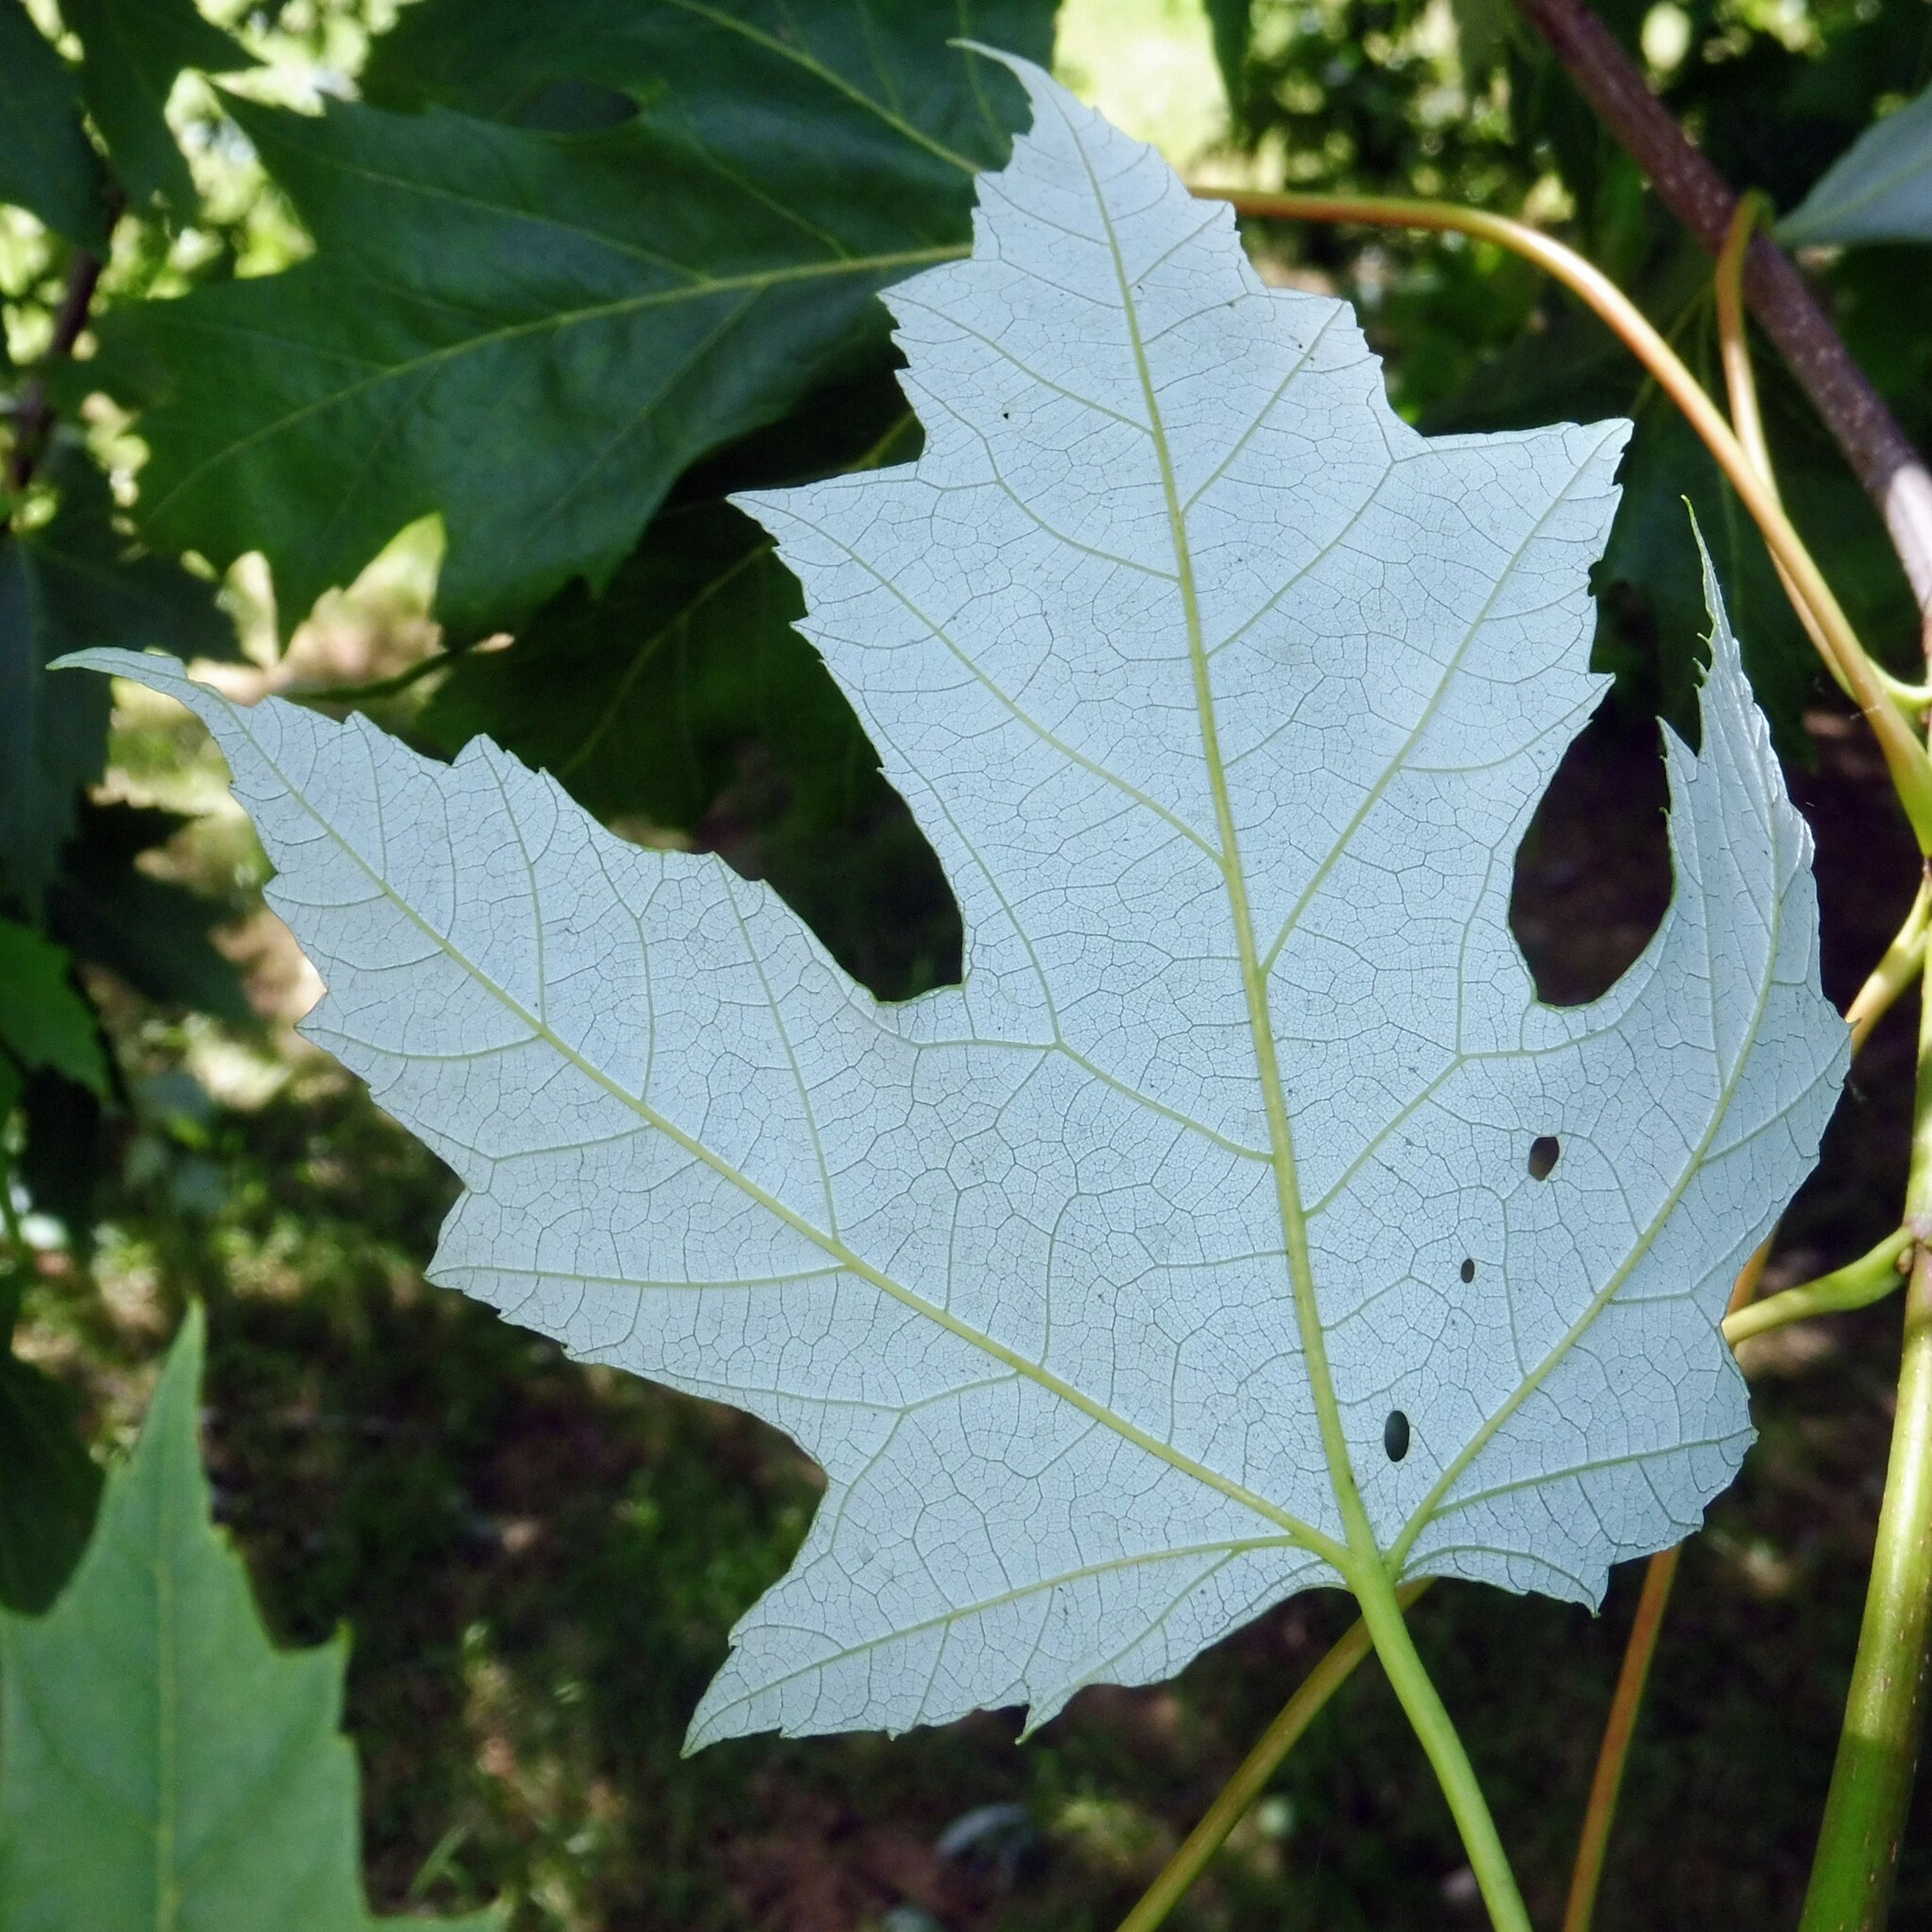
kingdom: Plantae
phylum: Tracheophyta
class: Magnoliopsida
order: Sapindales
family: Sapindaceae
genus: Acer
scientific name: Acer saccharinum
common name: Silver maple
